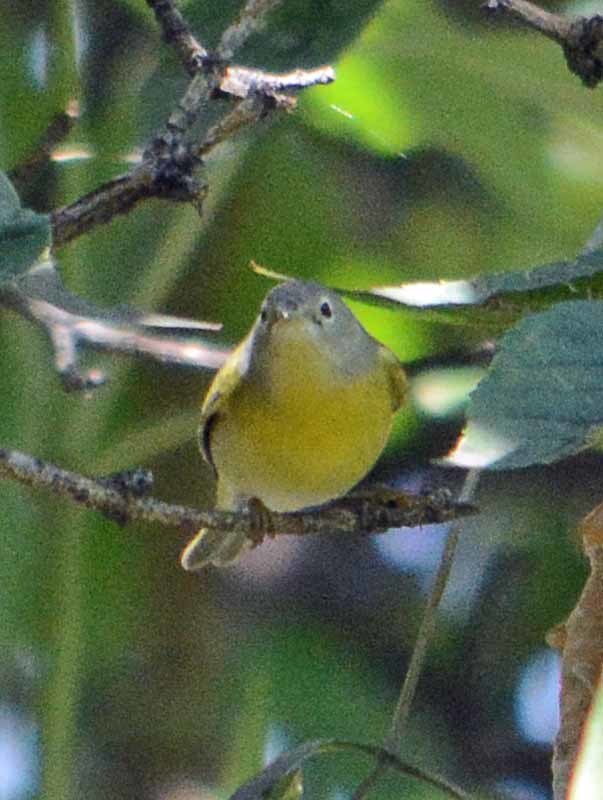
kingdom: Animalia
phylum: Chordata
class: Aves
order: Passeriformes
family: Parulidae
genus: Leiothlypis
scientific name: Leiothlypis ruficapilla
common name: Nashville warbler
